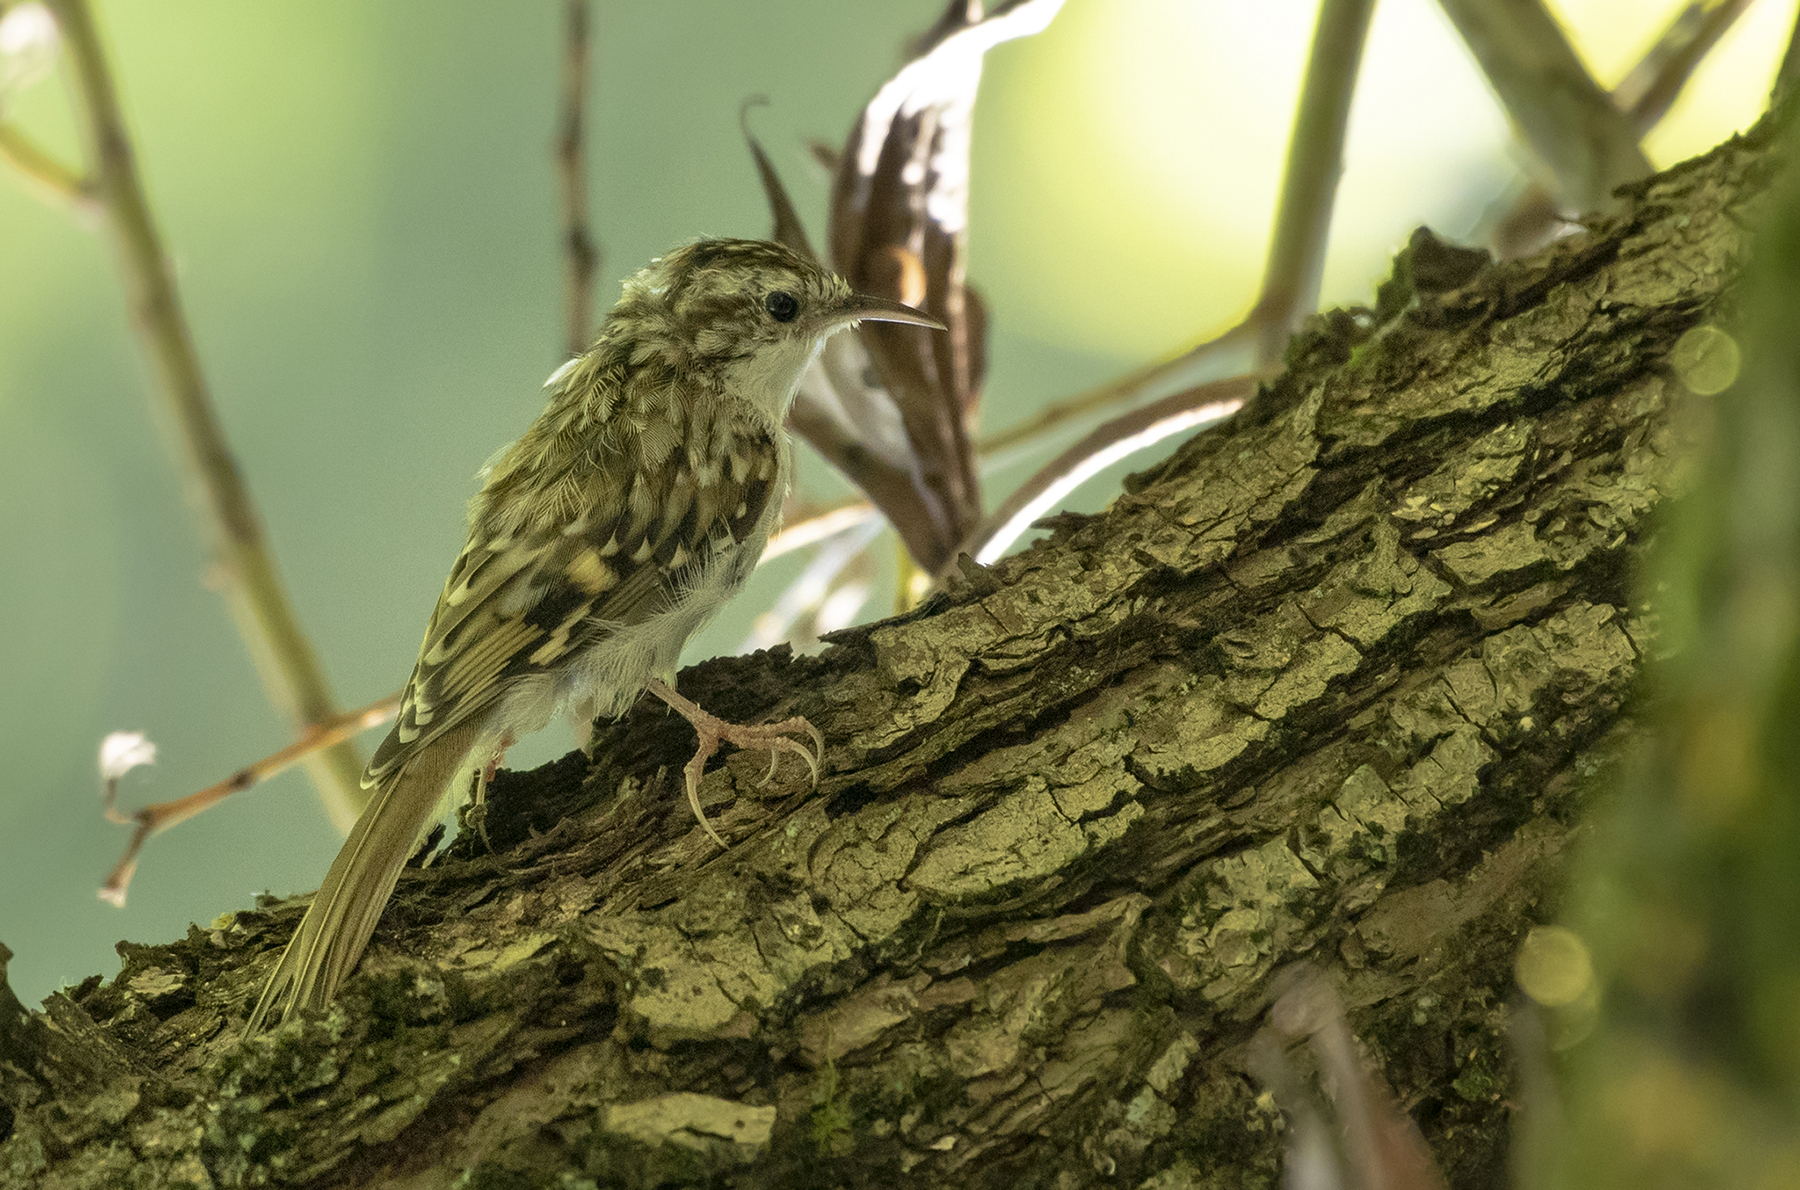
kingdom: Animalia
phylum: Chordata
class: Aves
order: Passeriformes
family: Certhiidae
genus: Certhia
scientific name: Certhia familiaris
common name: Eurasian treecreeper
